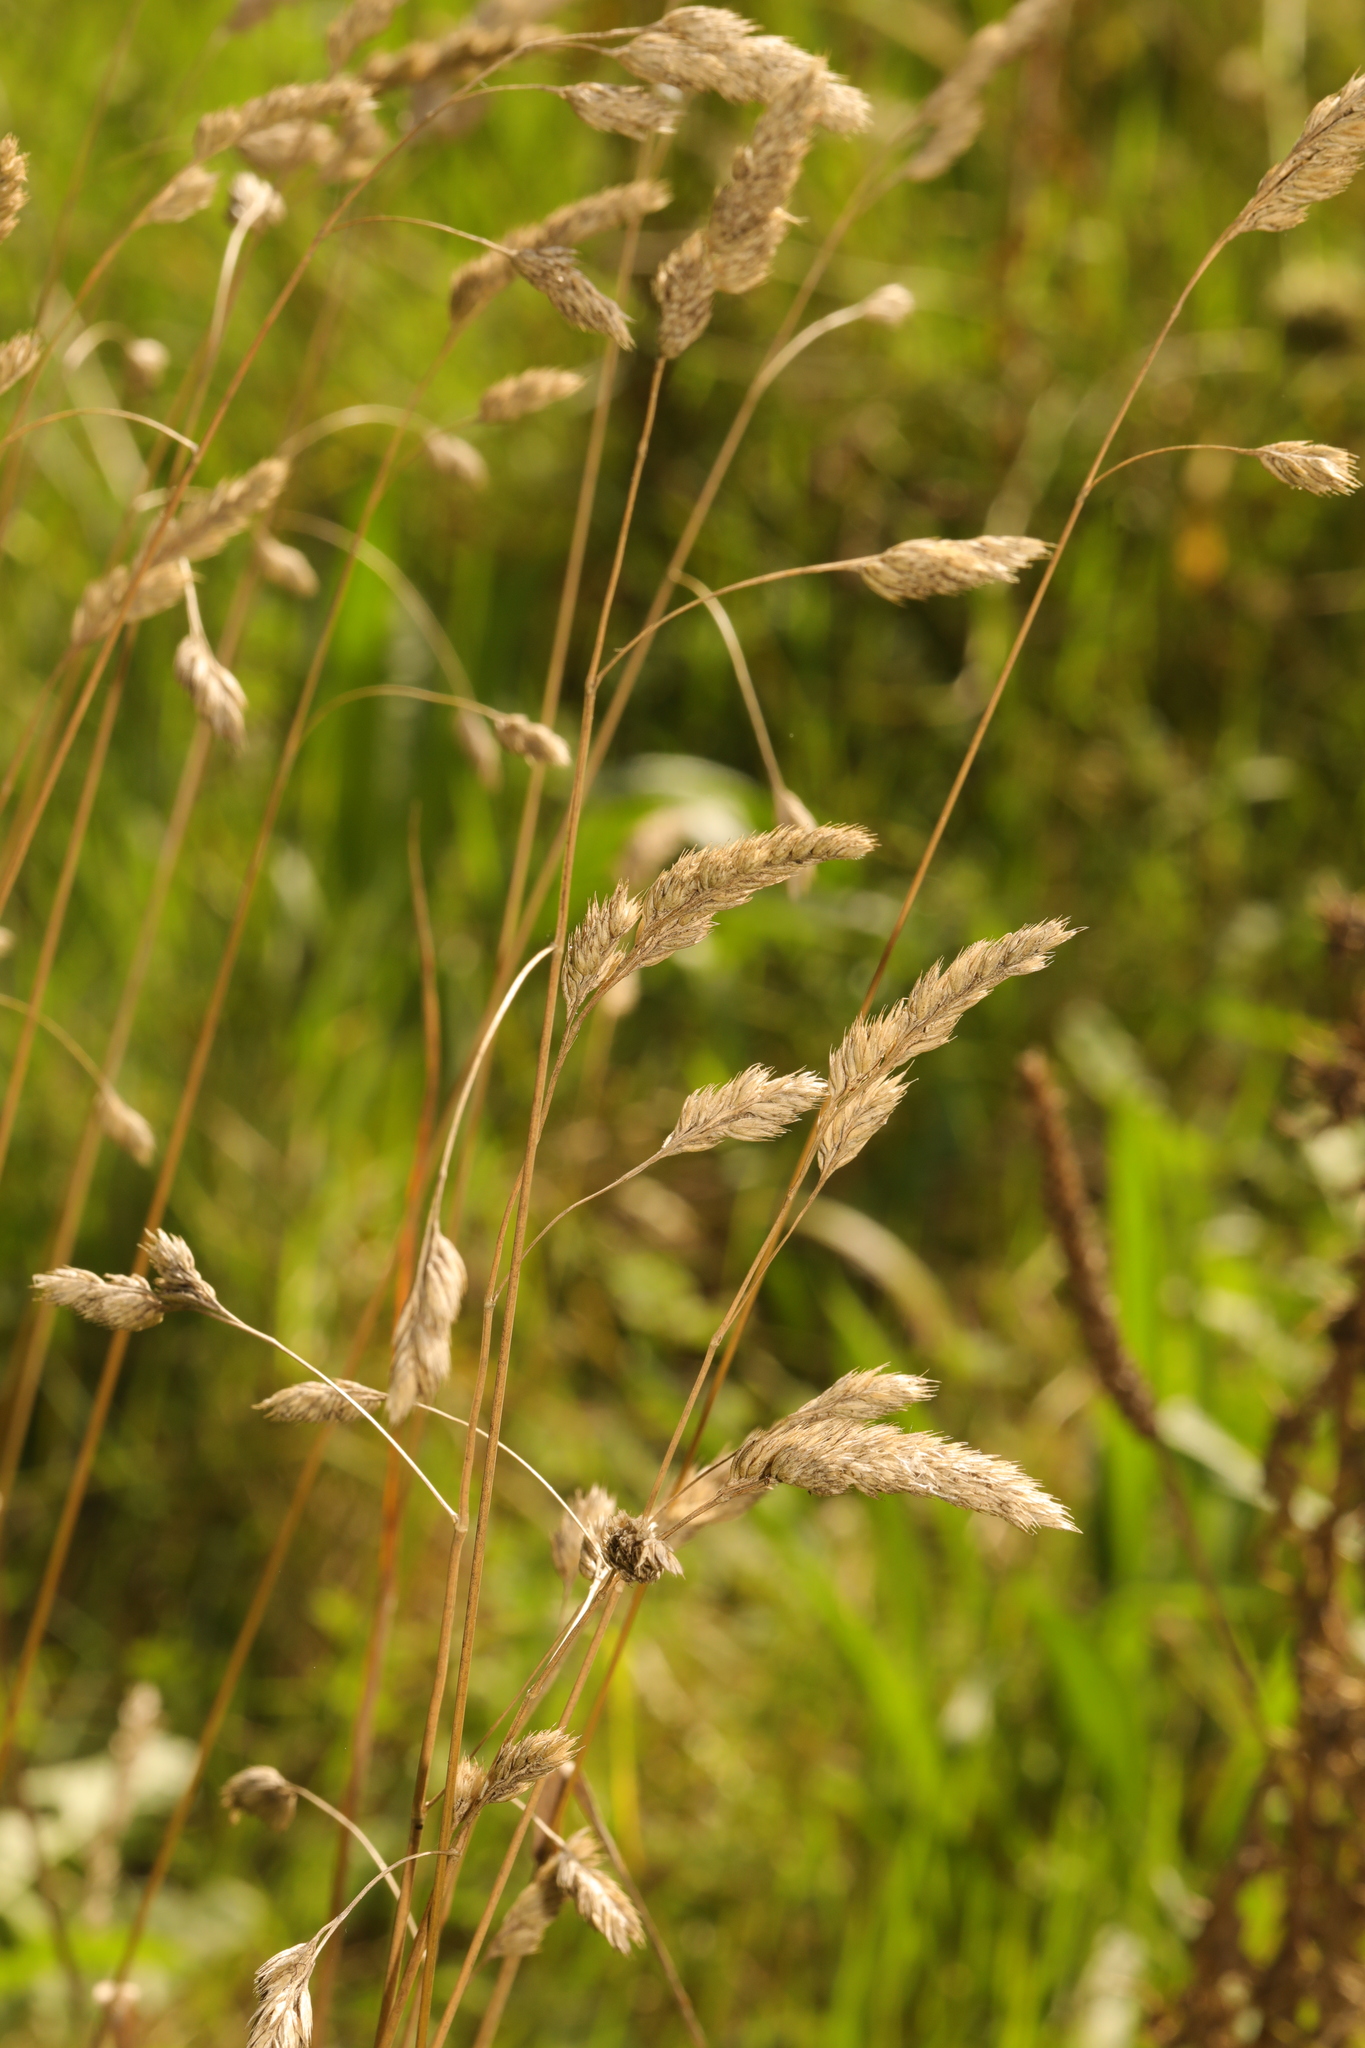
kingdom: Plantae
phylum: Tracheophyta
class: Liliopsida
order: Poales
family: Poaceae
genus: Dactylis
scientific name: Dactylis glomerata
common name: Orchardgrass
